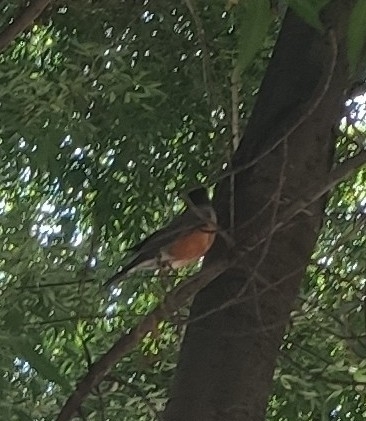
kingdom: Animalia
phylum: Chordata
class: Aves
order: Passeriformes
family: Turdidae
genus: Turdus
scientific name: Turdus migratorius
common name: American robin
